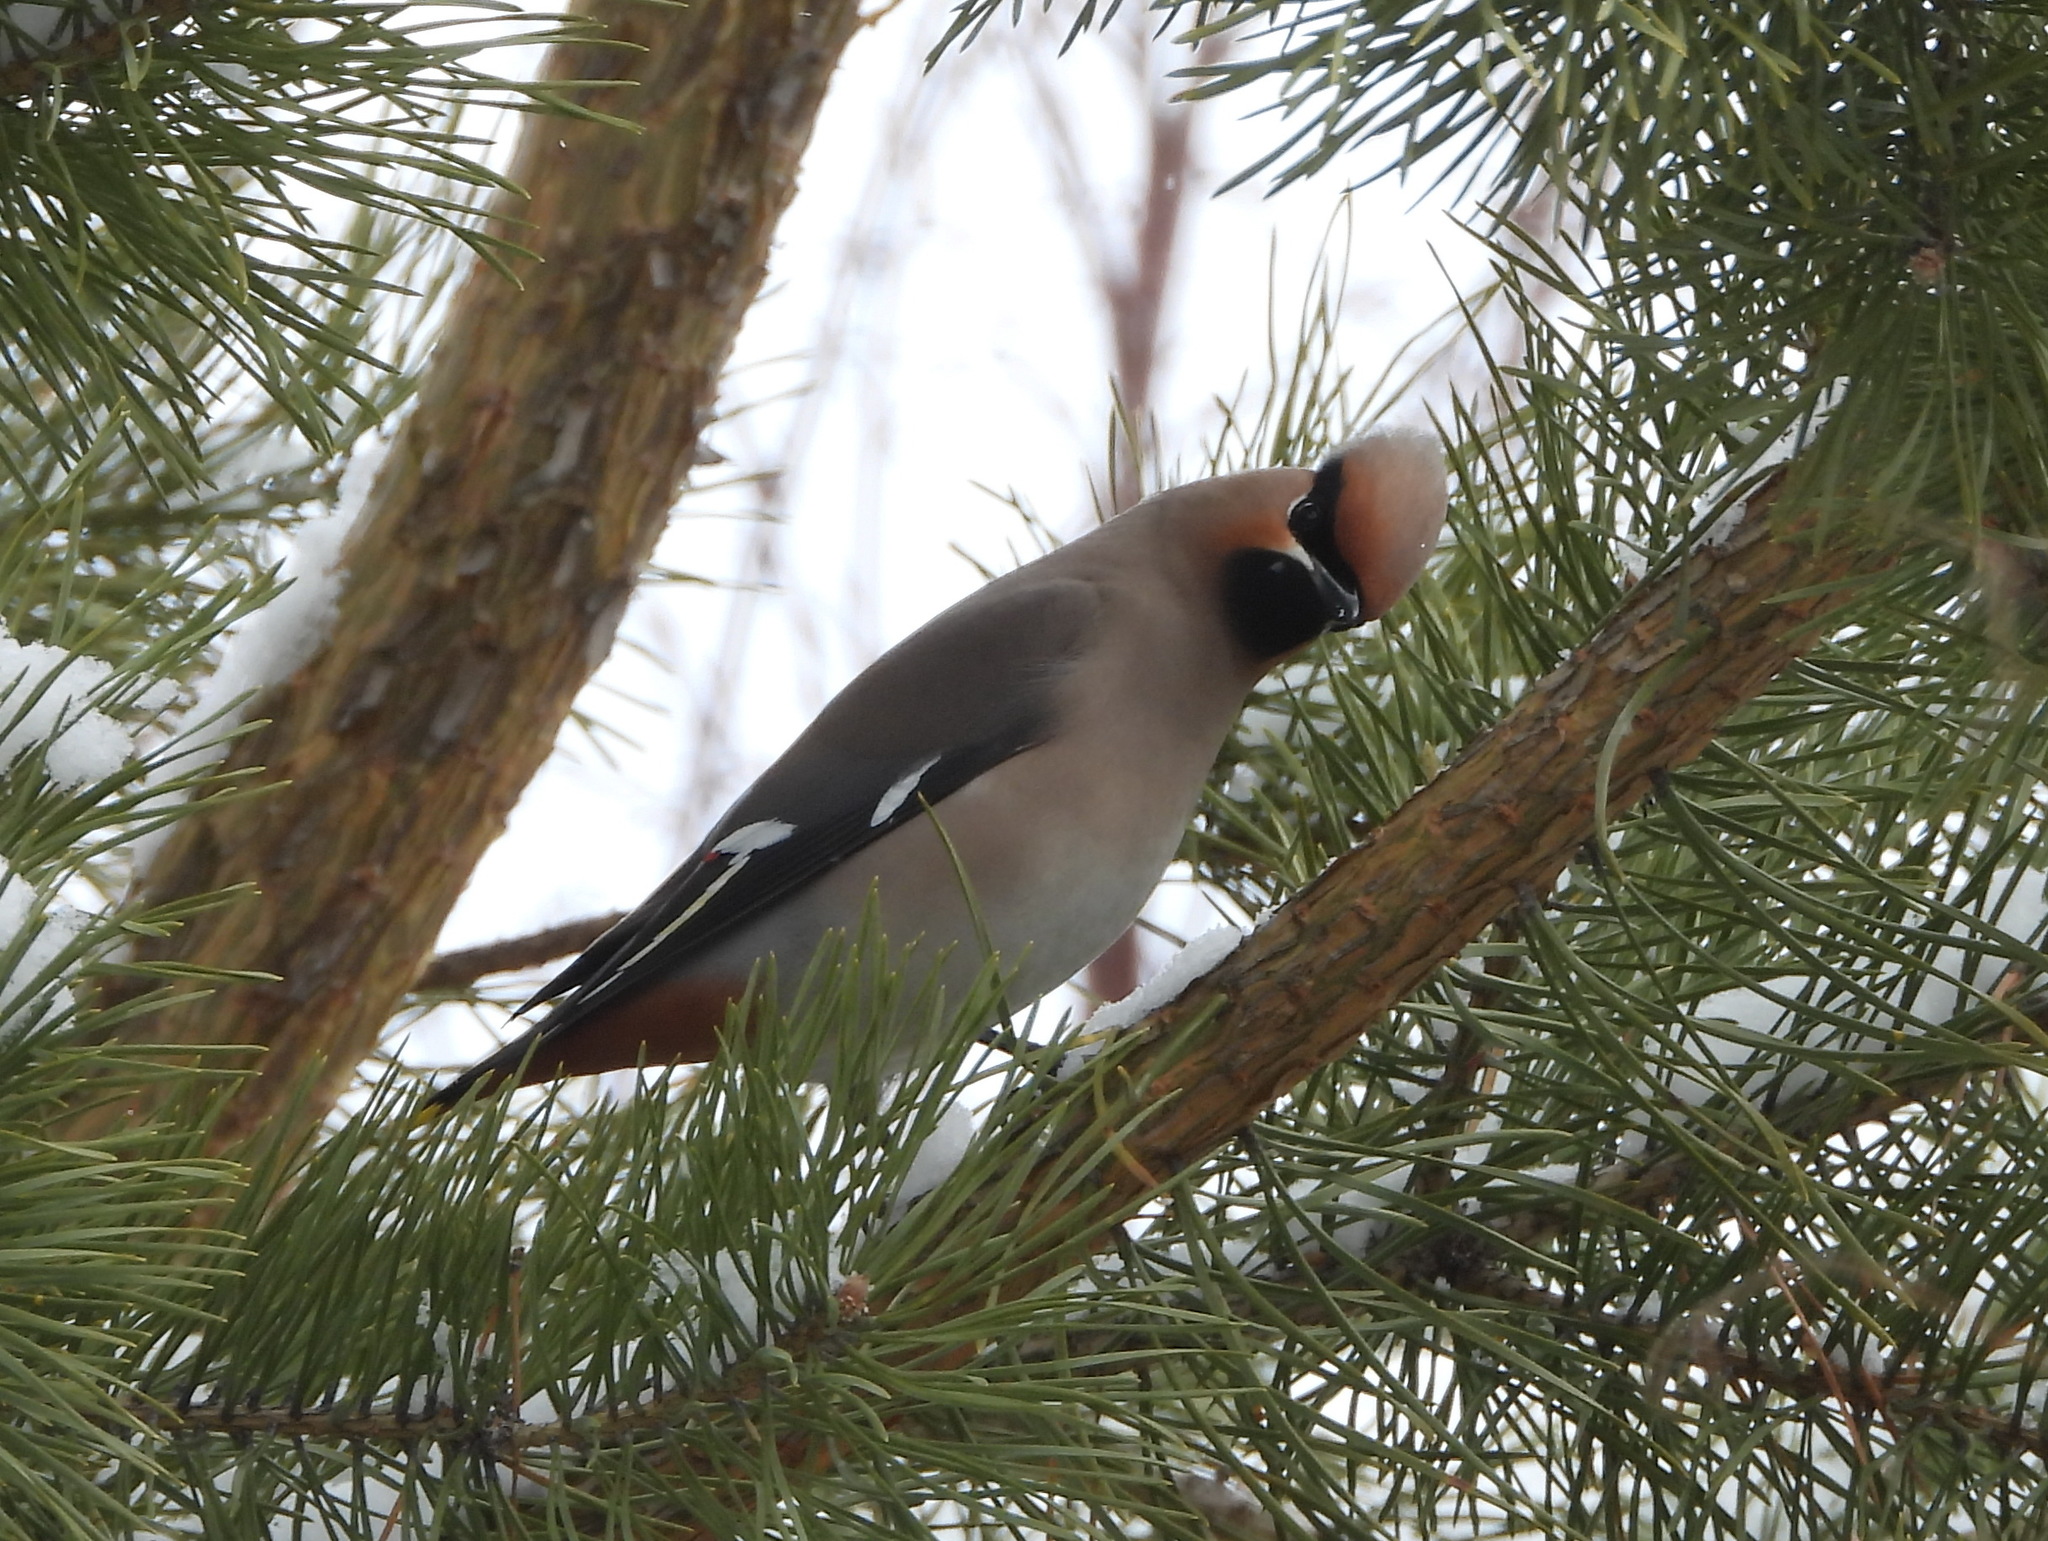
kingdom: Animalia
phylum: Chordata
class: Aves
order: Passeriformes
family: Bombycillidae
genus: Bombycilla
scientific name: Bombycilla garrulus
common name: Bohemian waxwing
